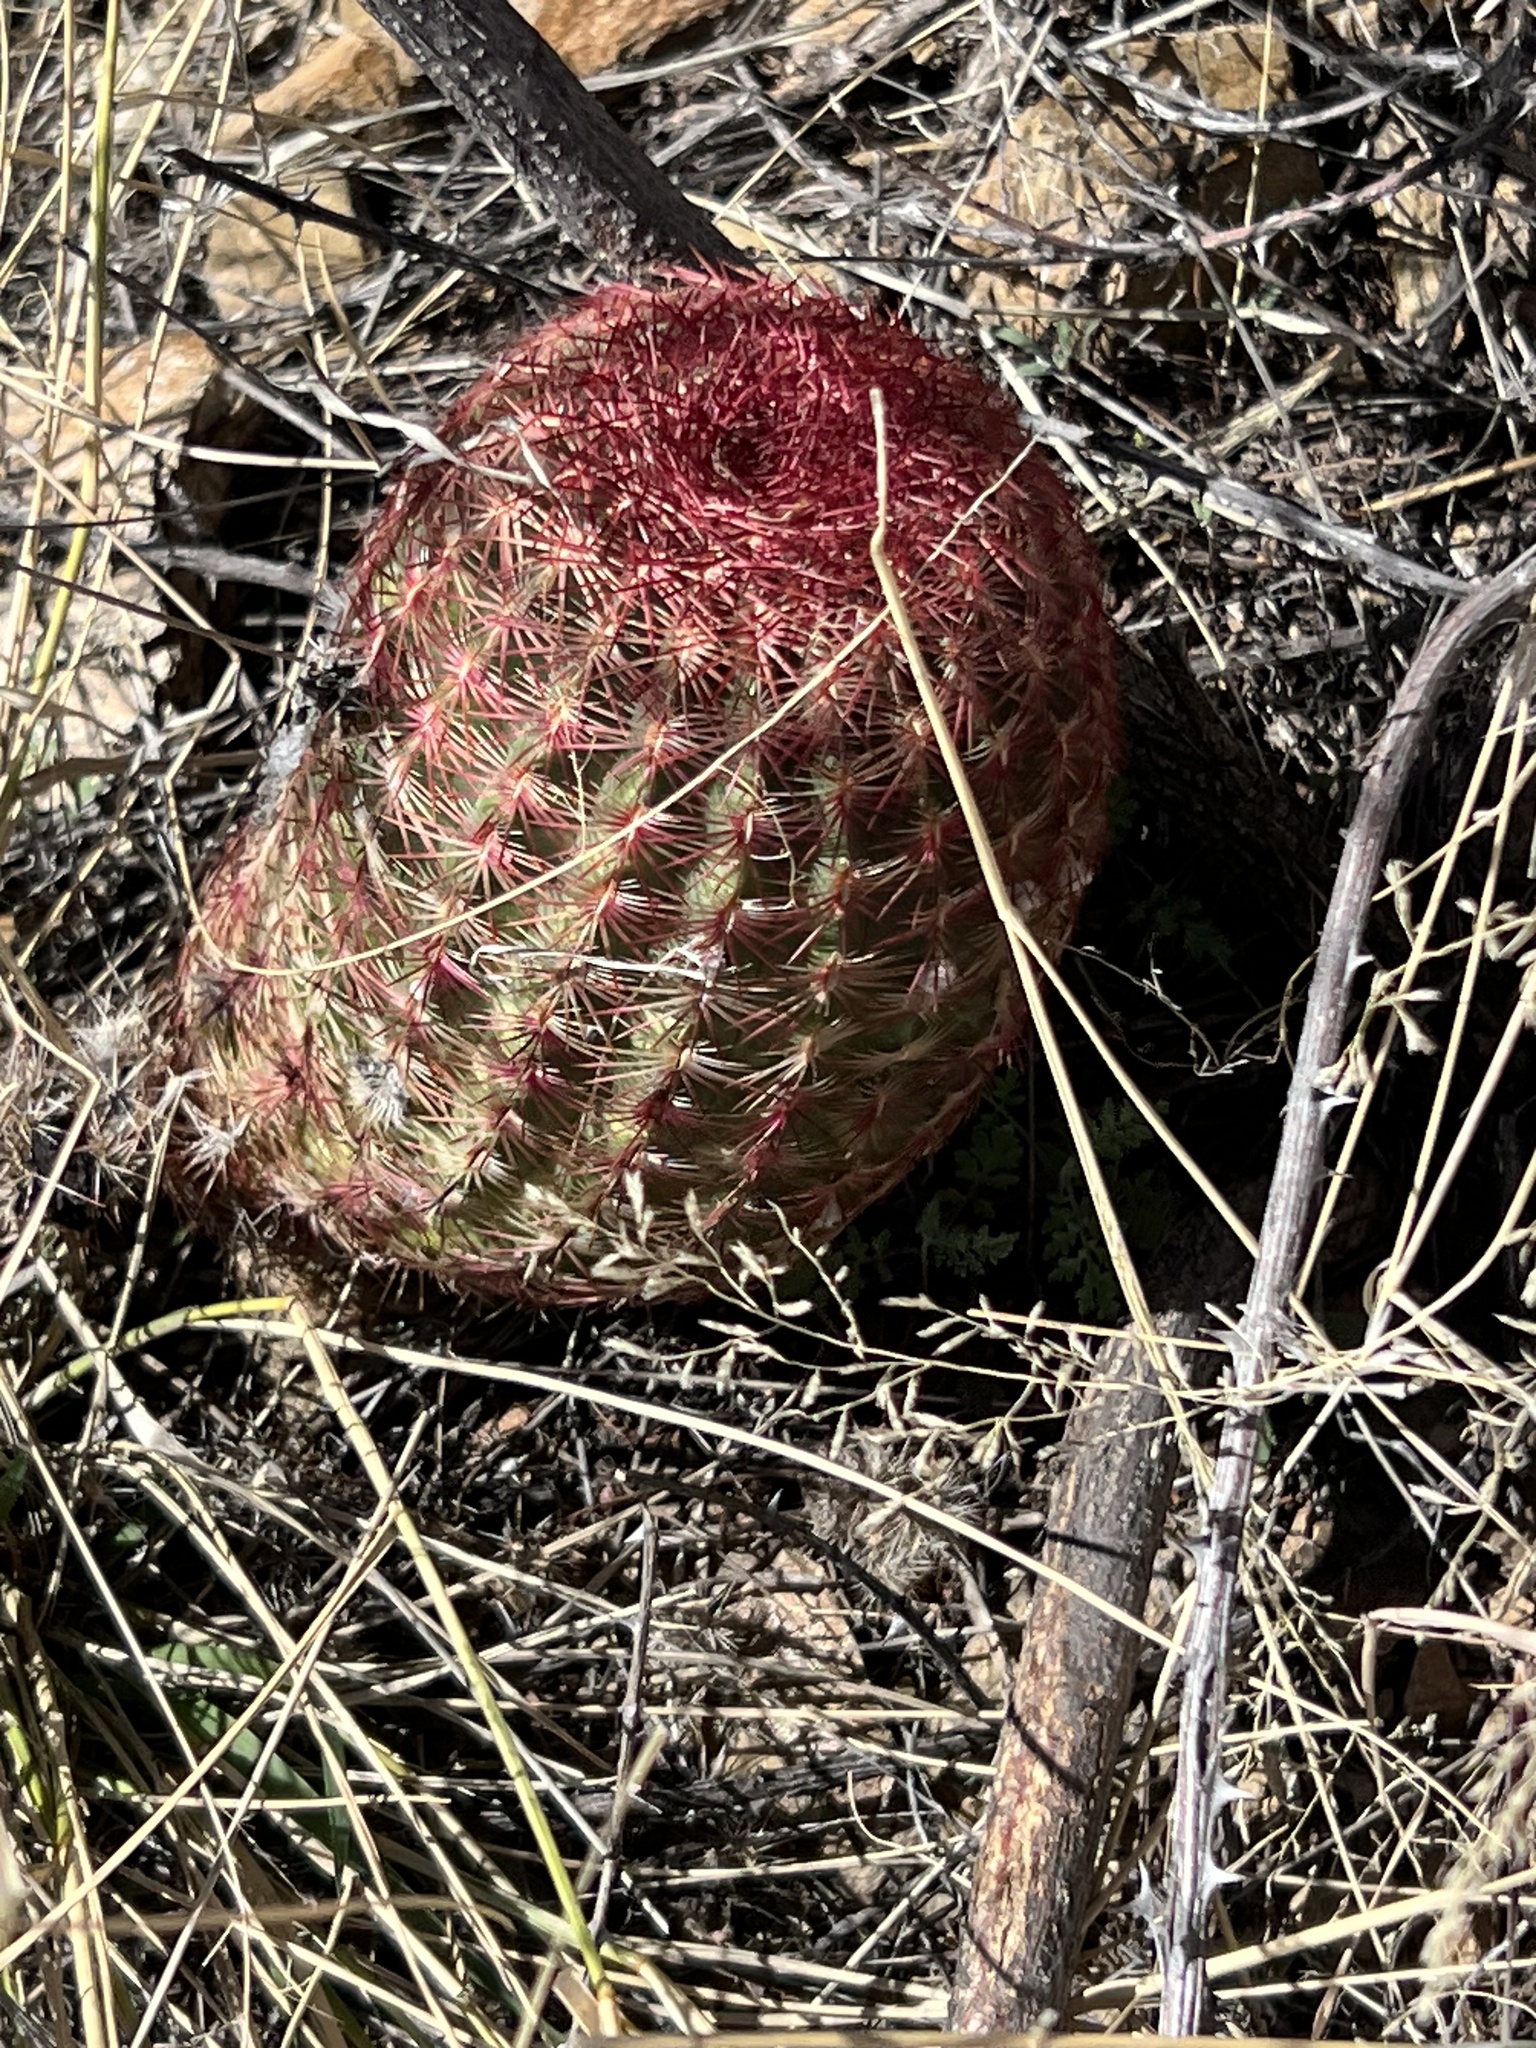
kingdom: Plantae
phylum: Tracheophyta
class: Magnoliopsida
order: Caryophyllales
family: Cactaceae
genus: Echinocereus
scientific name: Echinocereus rigidissimus
